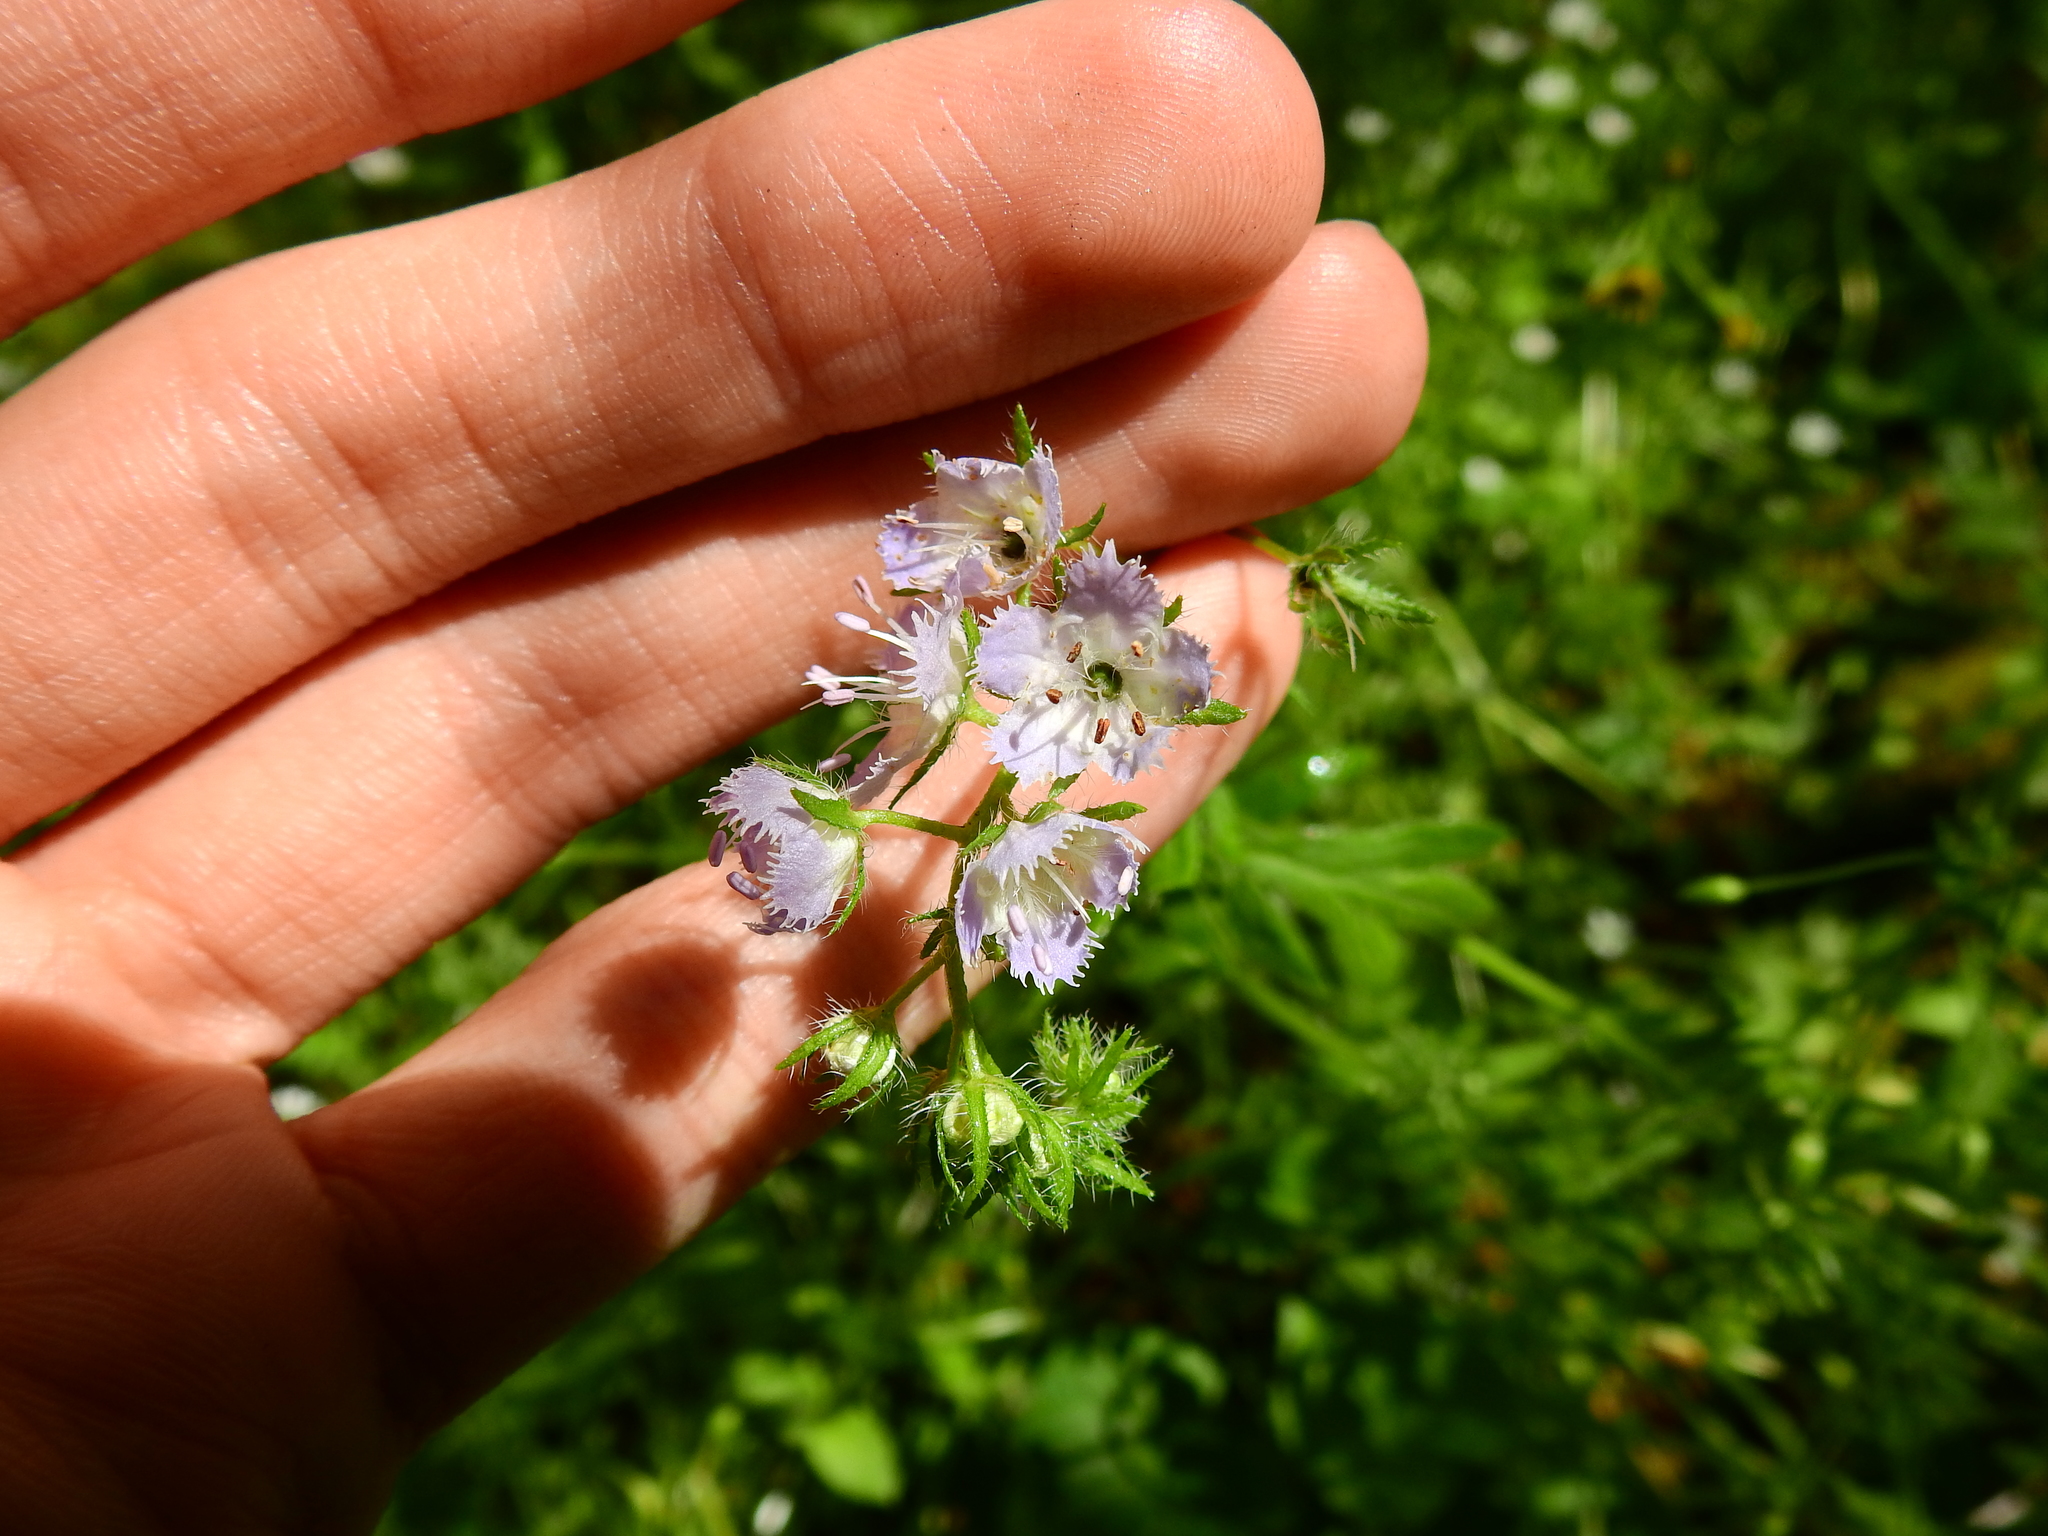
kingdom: Plantae
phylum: Tracheophyta
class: Magnoliopsida
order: Boraginales
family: Hydrophyllaceae
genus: Phacelia
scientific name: Phacelia purshii
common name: Miami-mist
